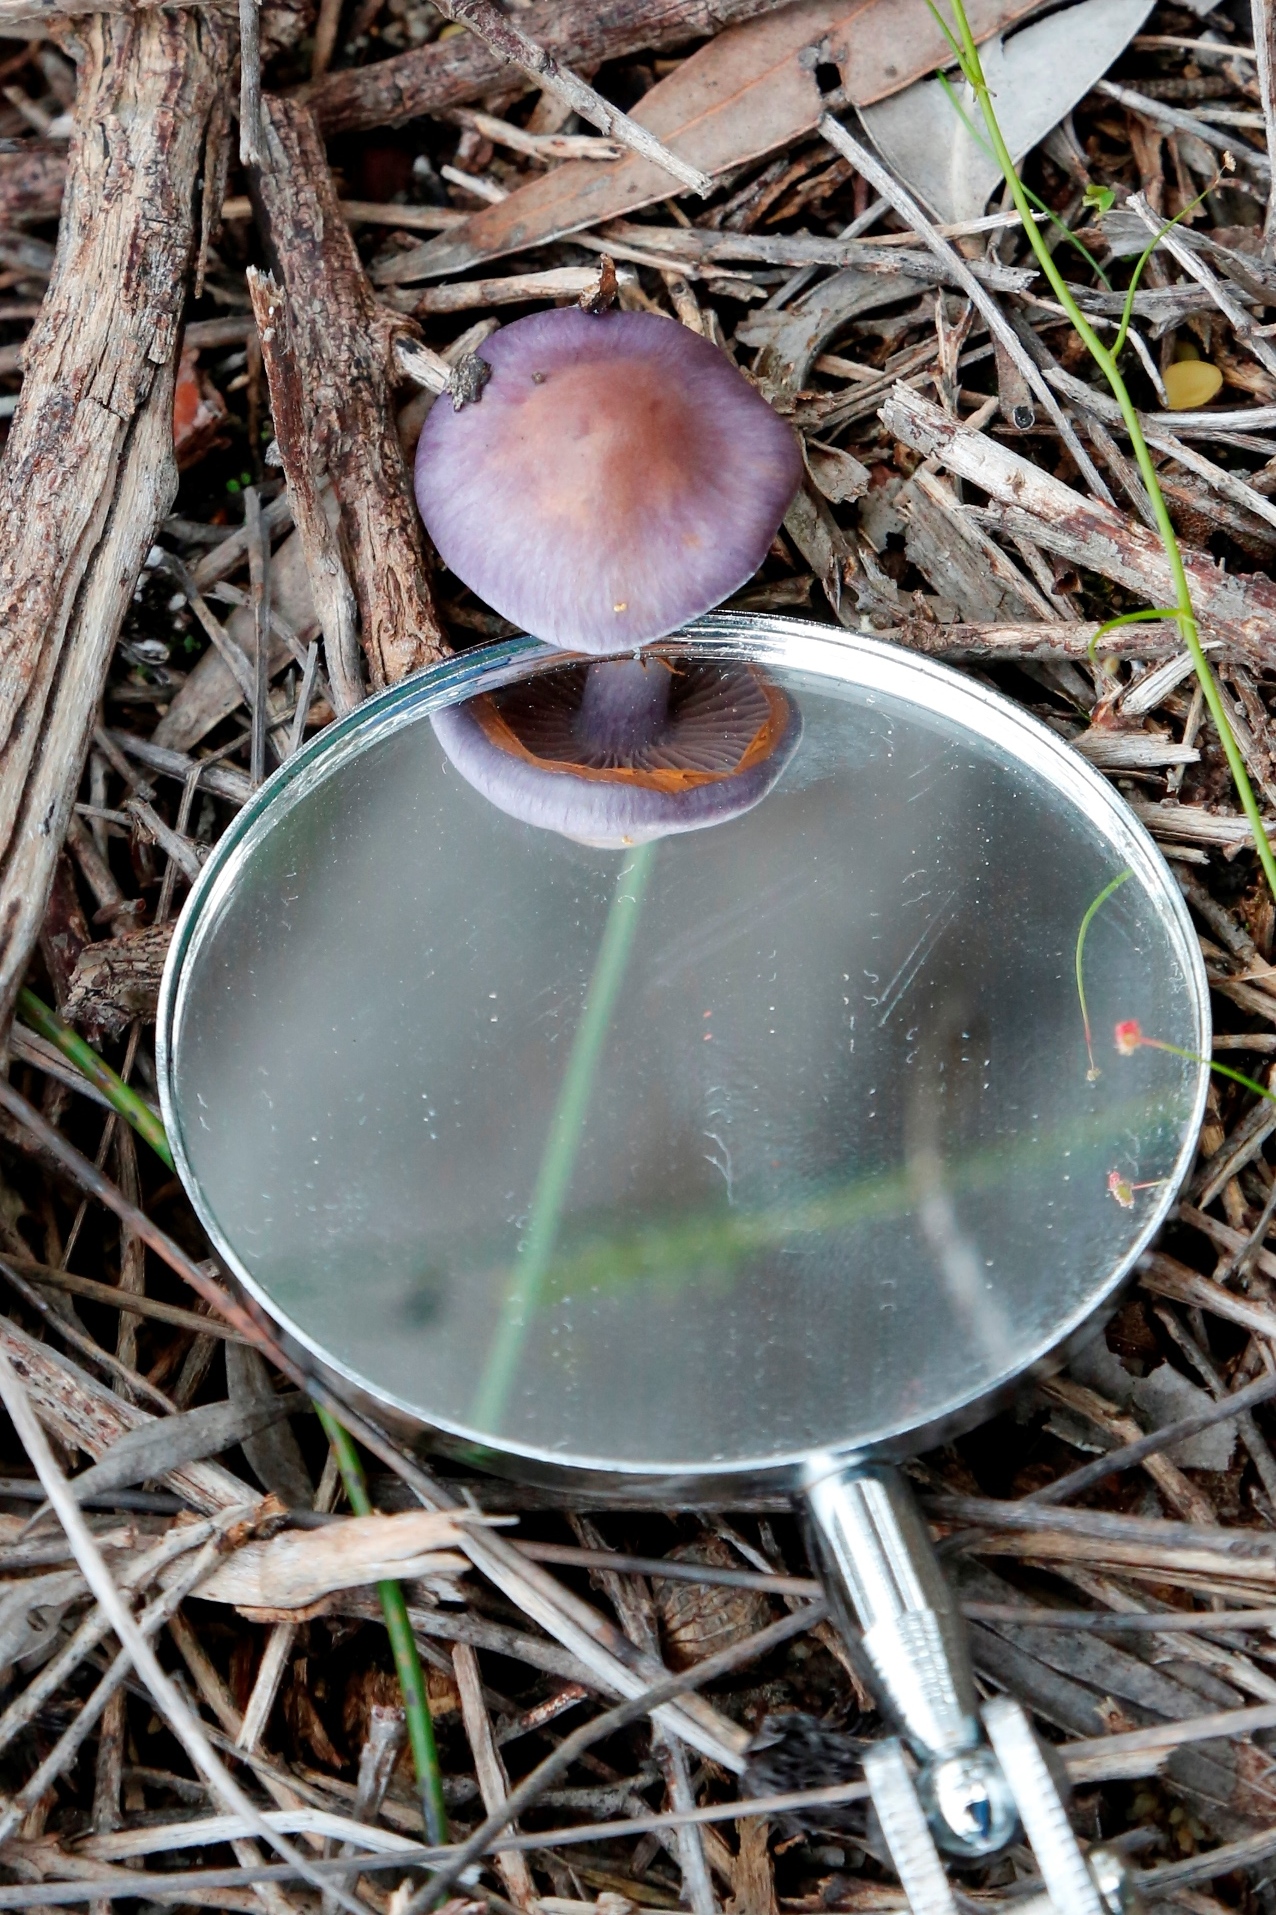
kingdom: Fungi
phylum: Basidiomycota
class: Agaricomycetes
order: Agaricales
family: Cortinariaceae
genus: Cortinarius
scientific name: Cortinarius archeri
